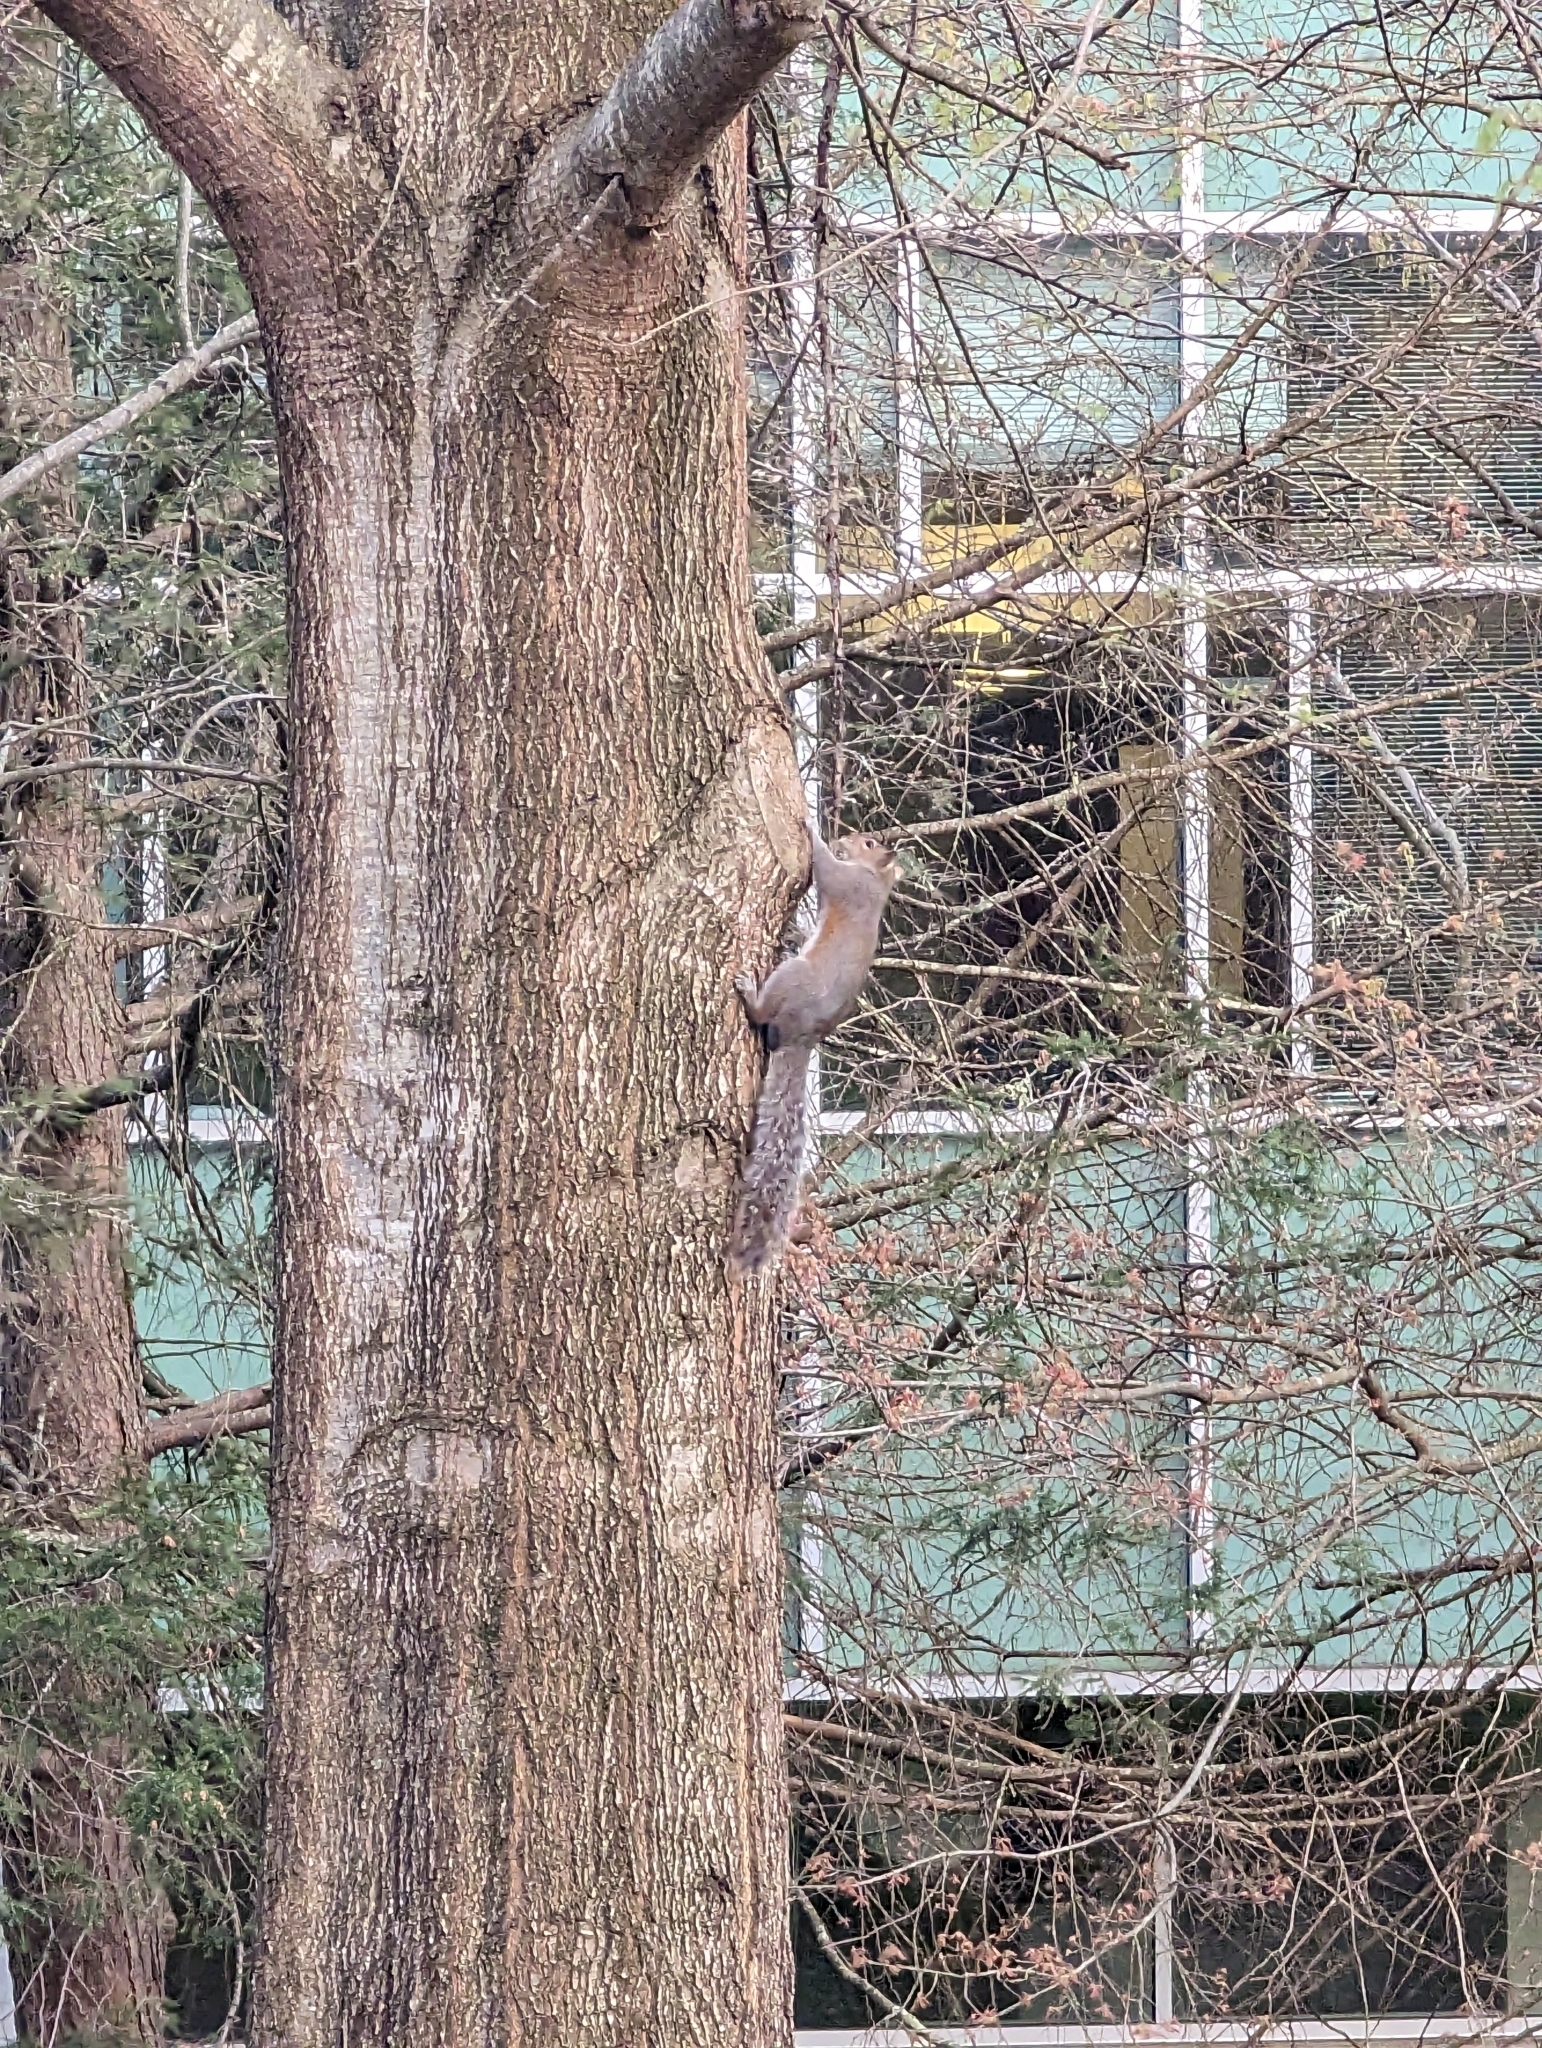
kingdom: Animalia
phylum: Chordata
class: Mammalia
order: Rodentia
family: Sciuridae
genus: Sciurus
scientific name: Sciurus carolinensis
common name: Eastern gray squirrel
